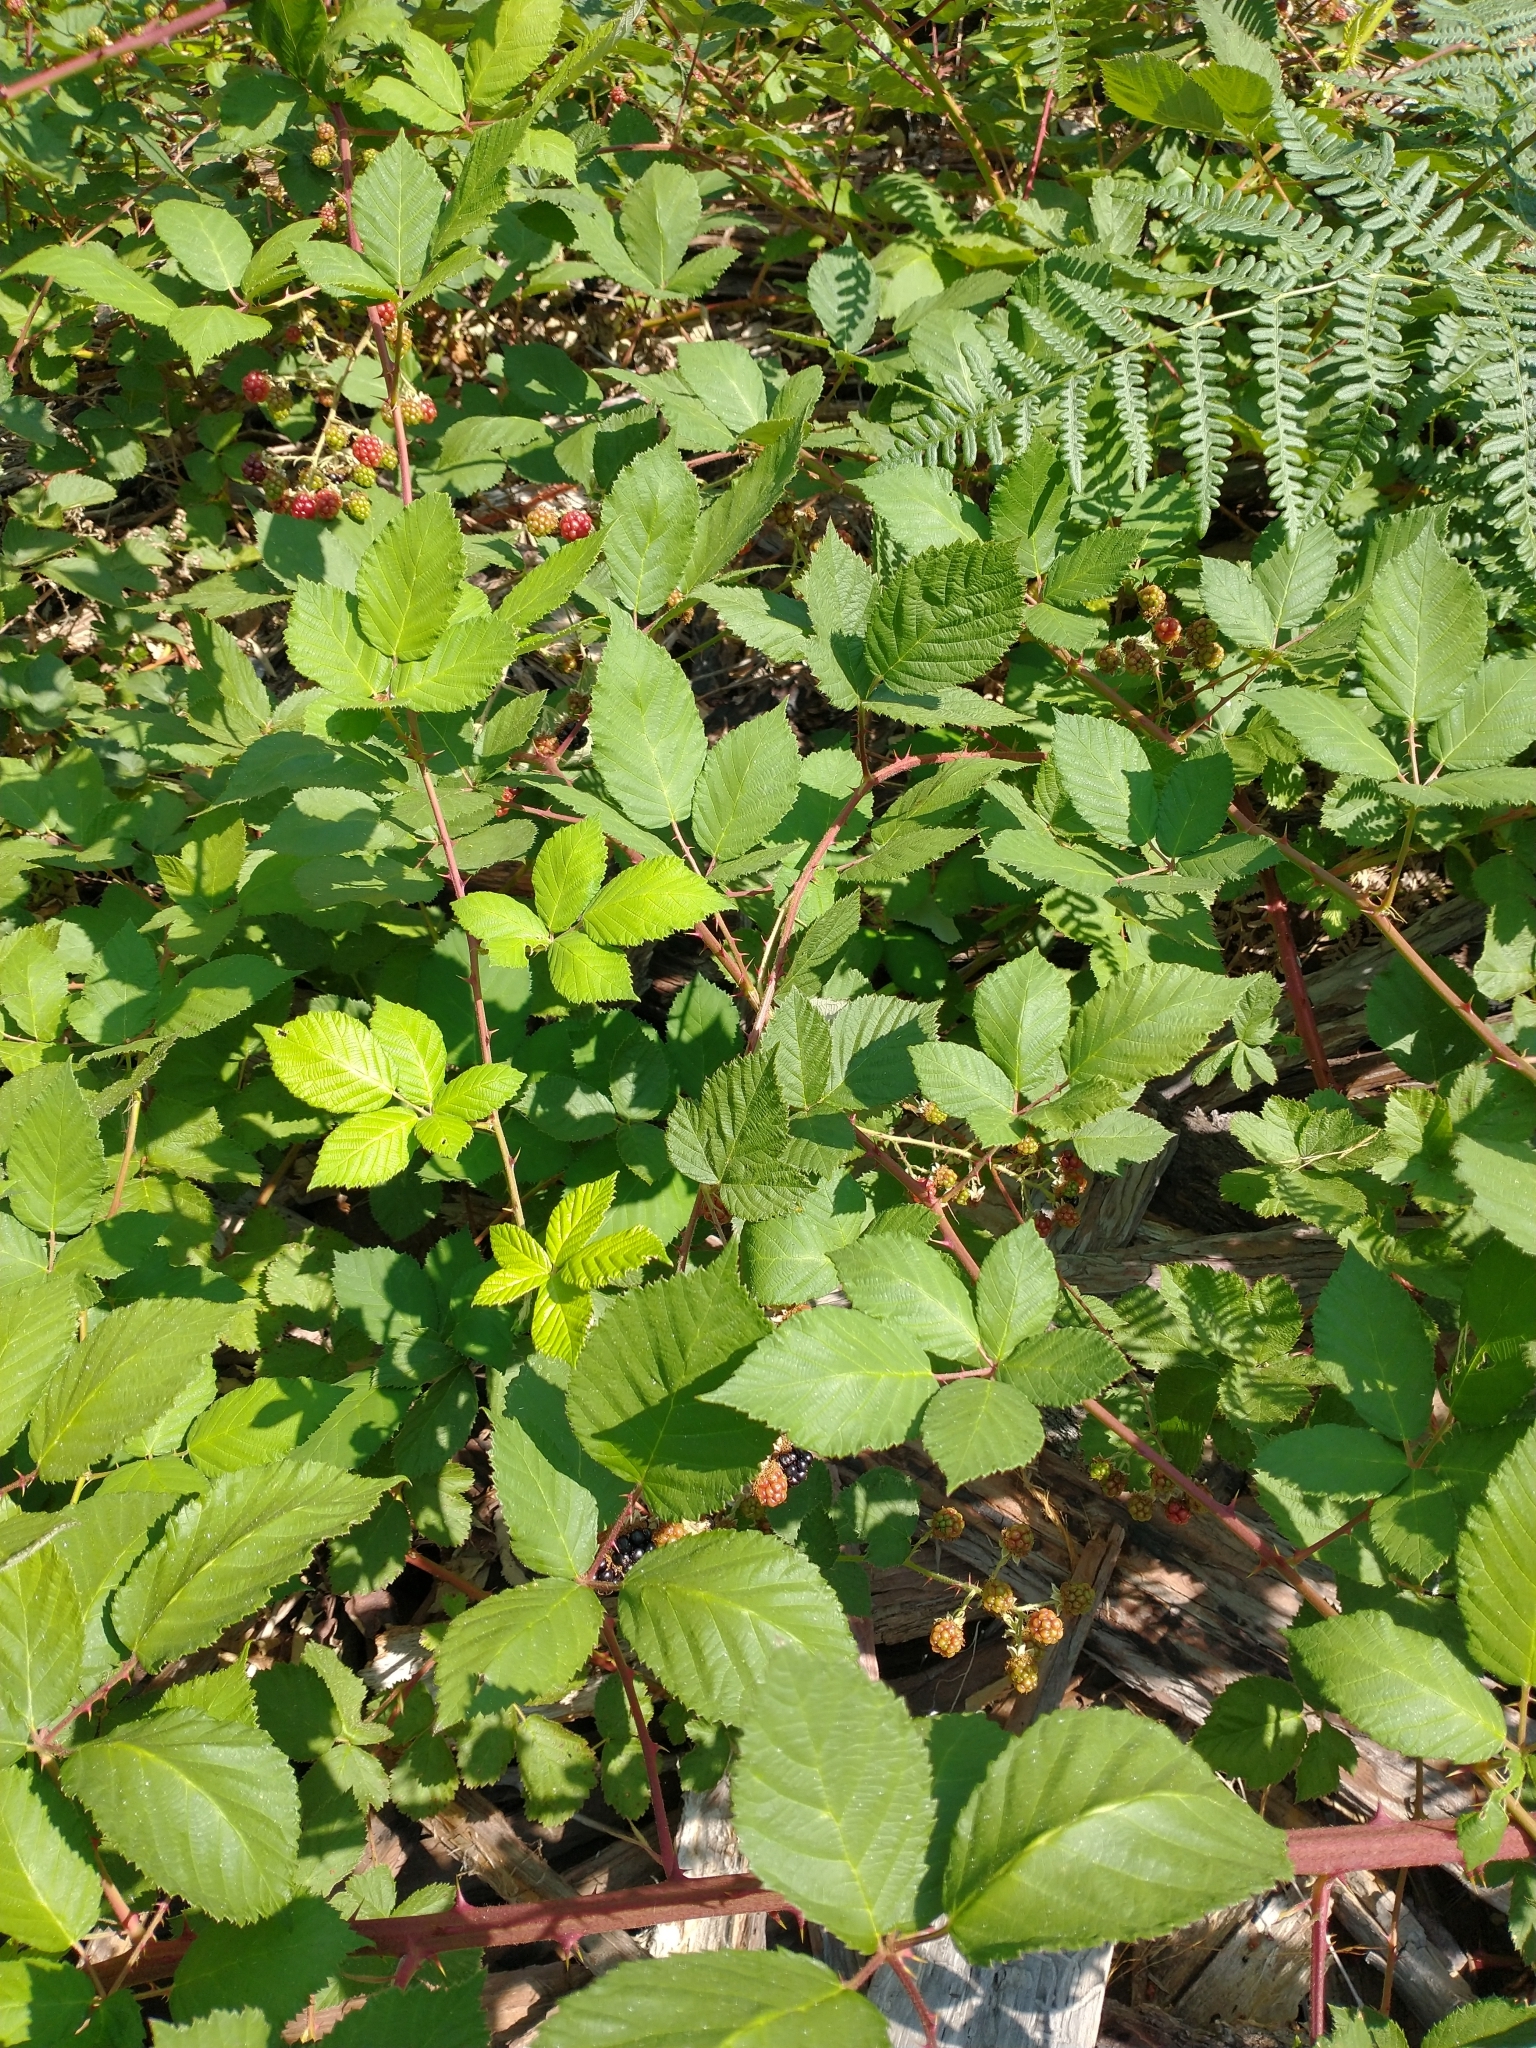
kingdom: Plantae
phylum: Tracheophyta
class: Magnoliopsida
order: Rosales
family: Rosaceae
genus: Rubus
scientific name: Rubus armeniacus
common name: Himalayan blackberry
